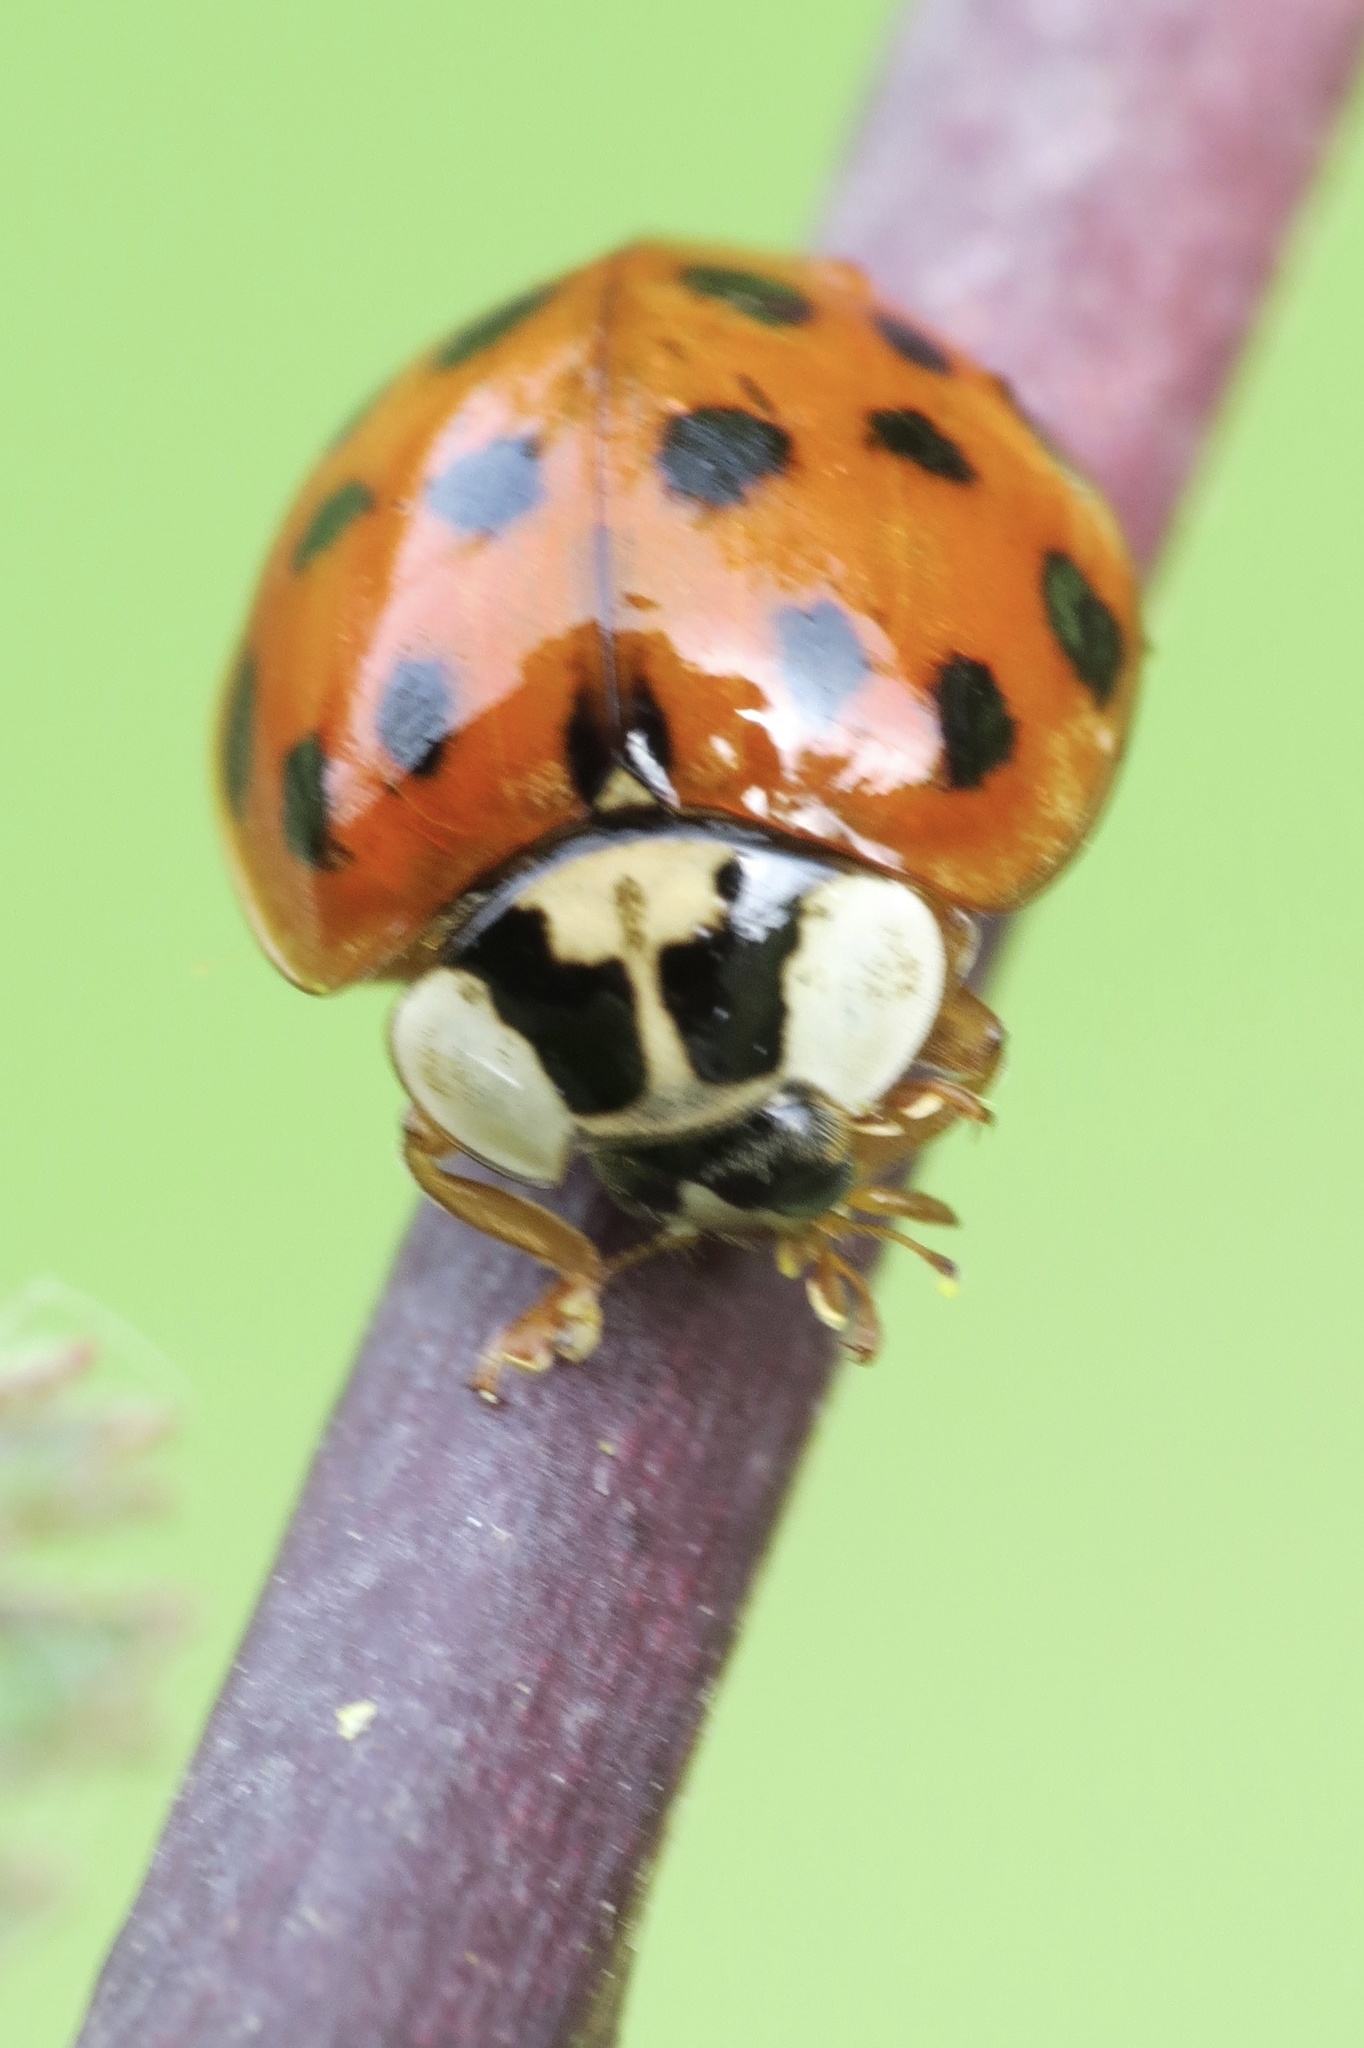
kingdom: Animalia
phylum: Arthropoda
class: Insecta
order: Coleoptera
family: Coccinellidae
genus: Harmonia
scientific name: Harmonia axyridis
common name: Harlequin ladybird
